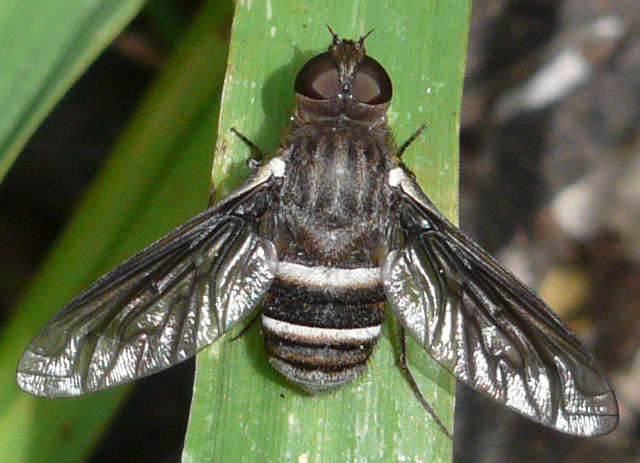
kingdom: Animalia
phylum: Arthropoda
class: Insecta
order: Diptera
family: Bombyliidae
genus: Villa
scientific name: Villa
